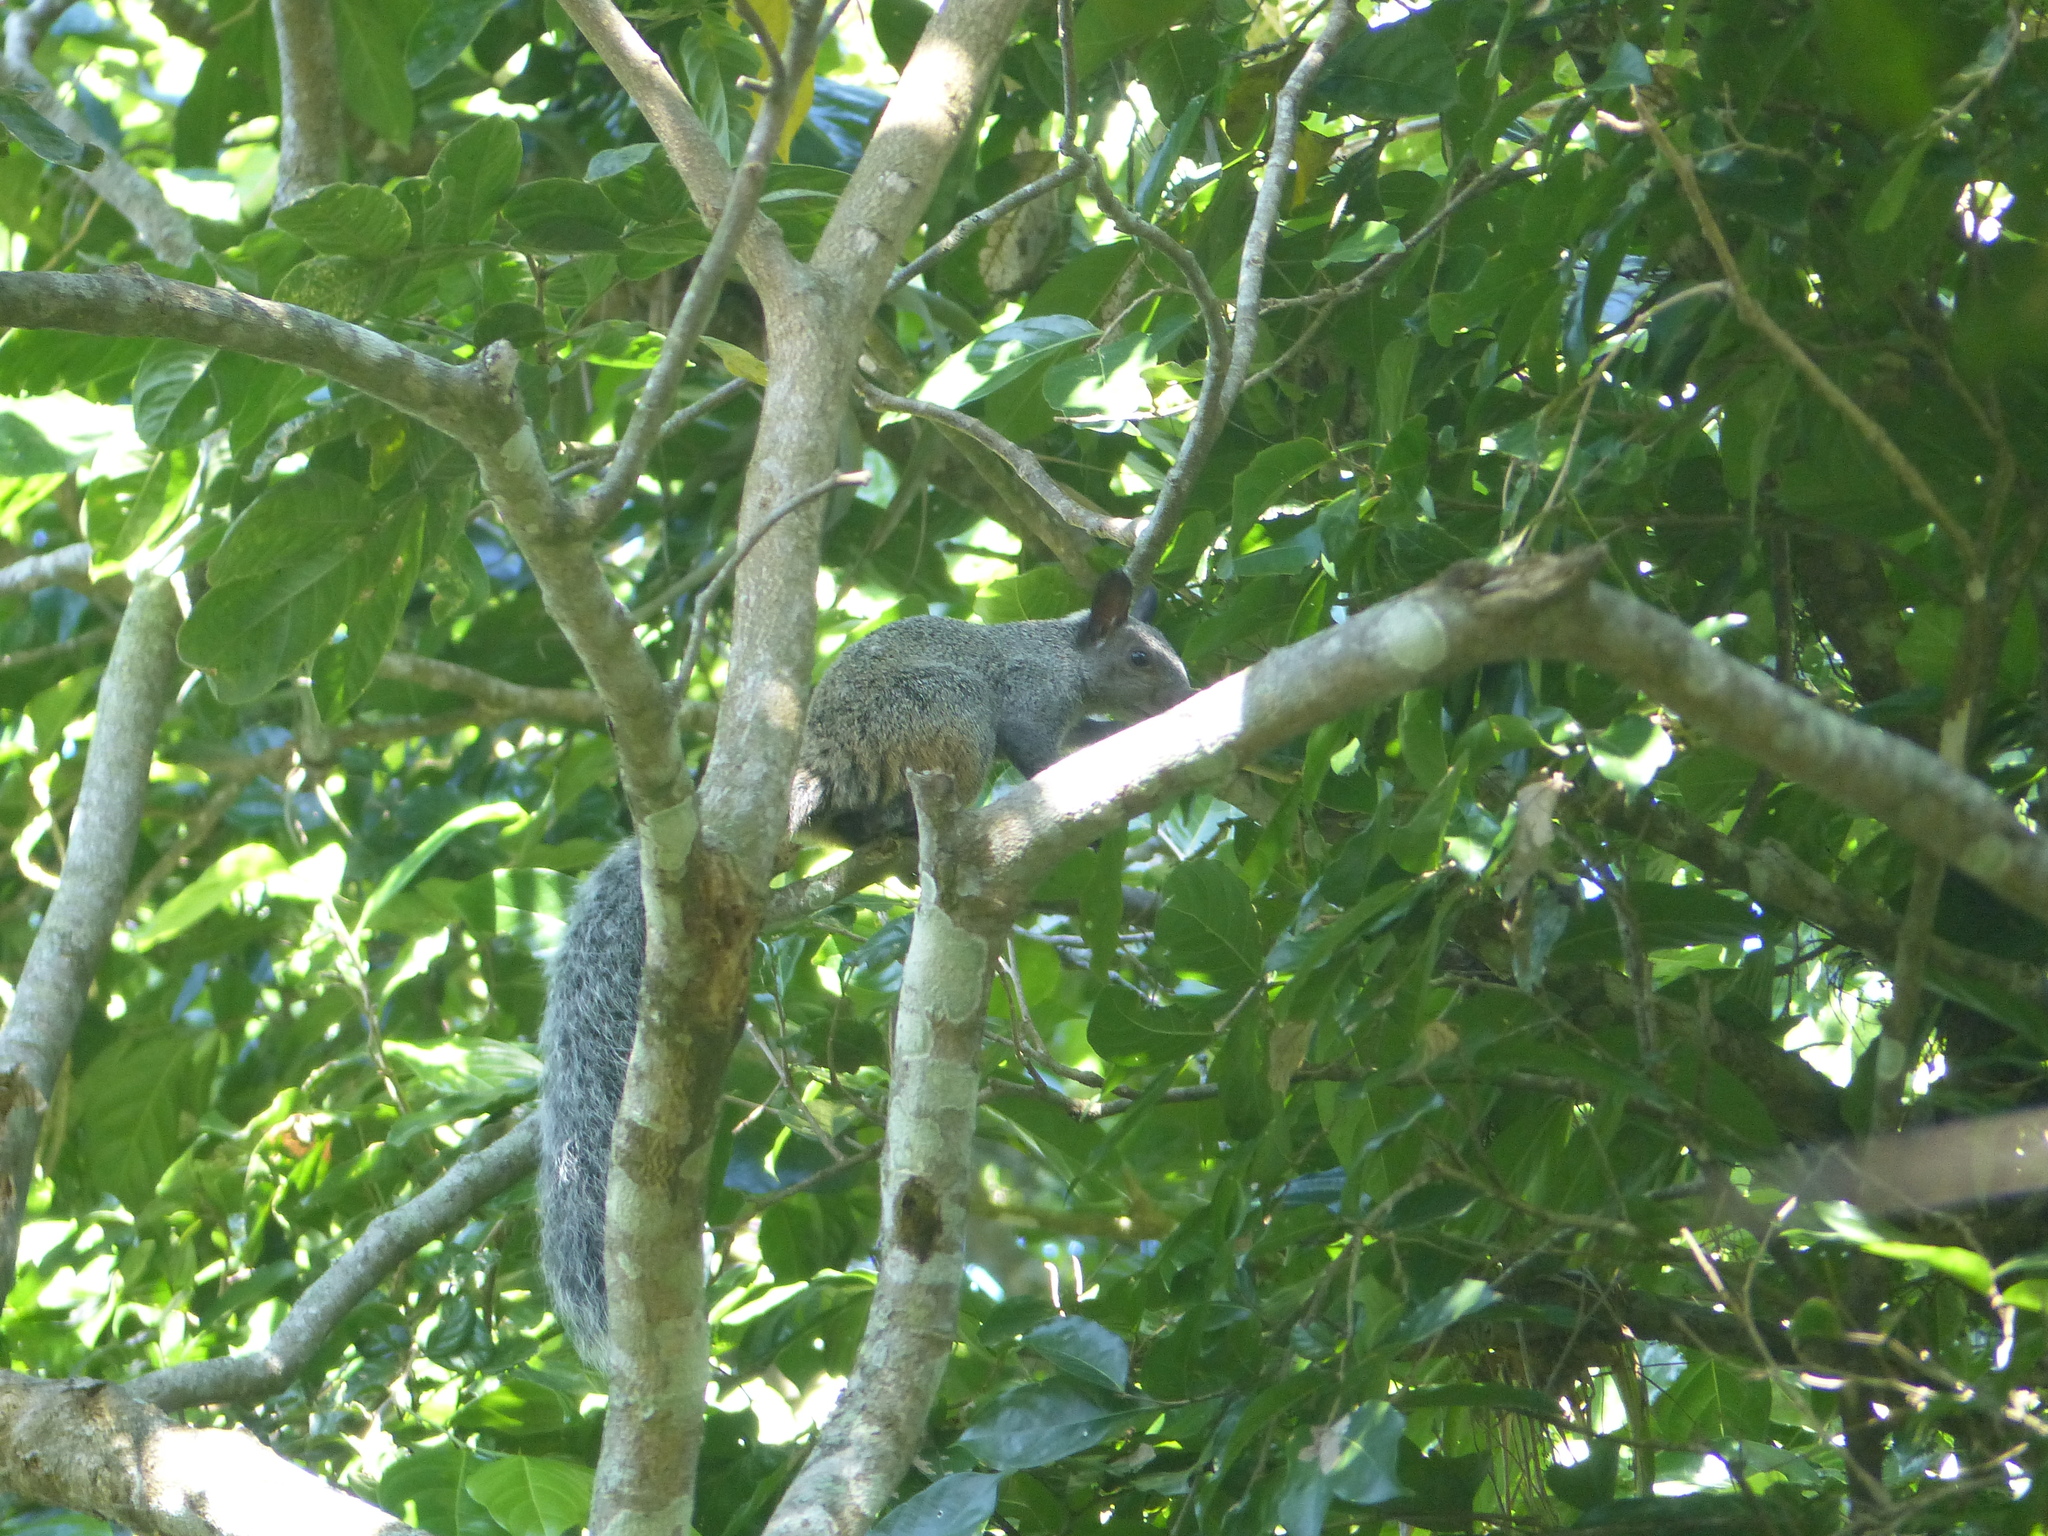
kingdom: Animalia
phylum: Chordata
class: Mammalia
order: Rodentia
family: Sciuridae
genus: Sciurus
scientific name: Sciurus stramineus
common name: Guayaquil squirrel
